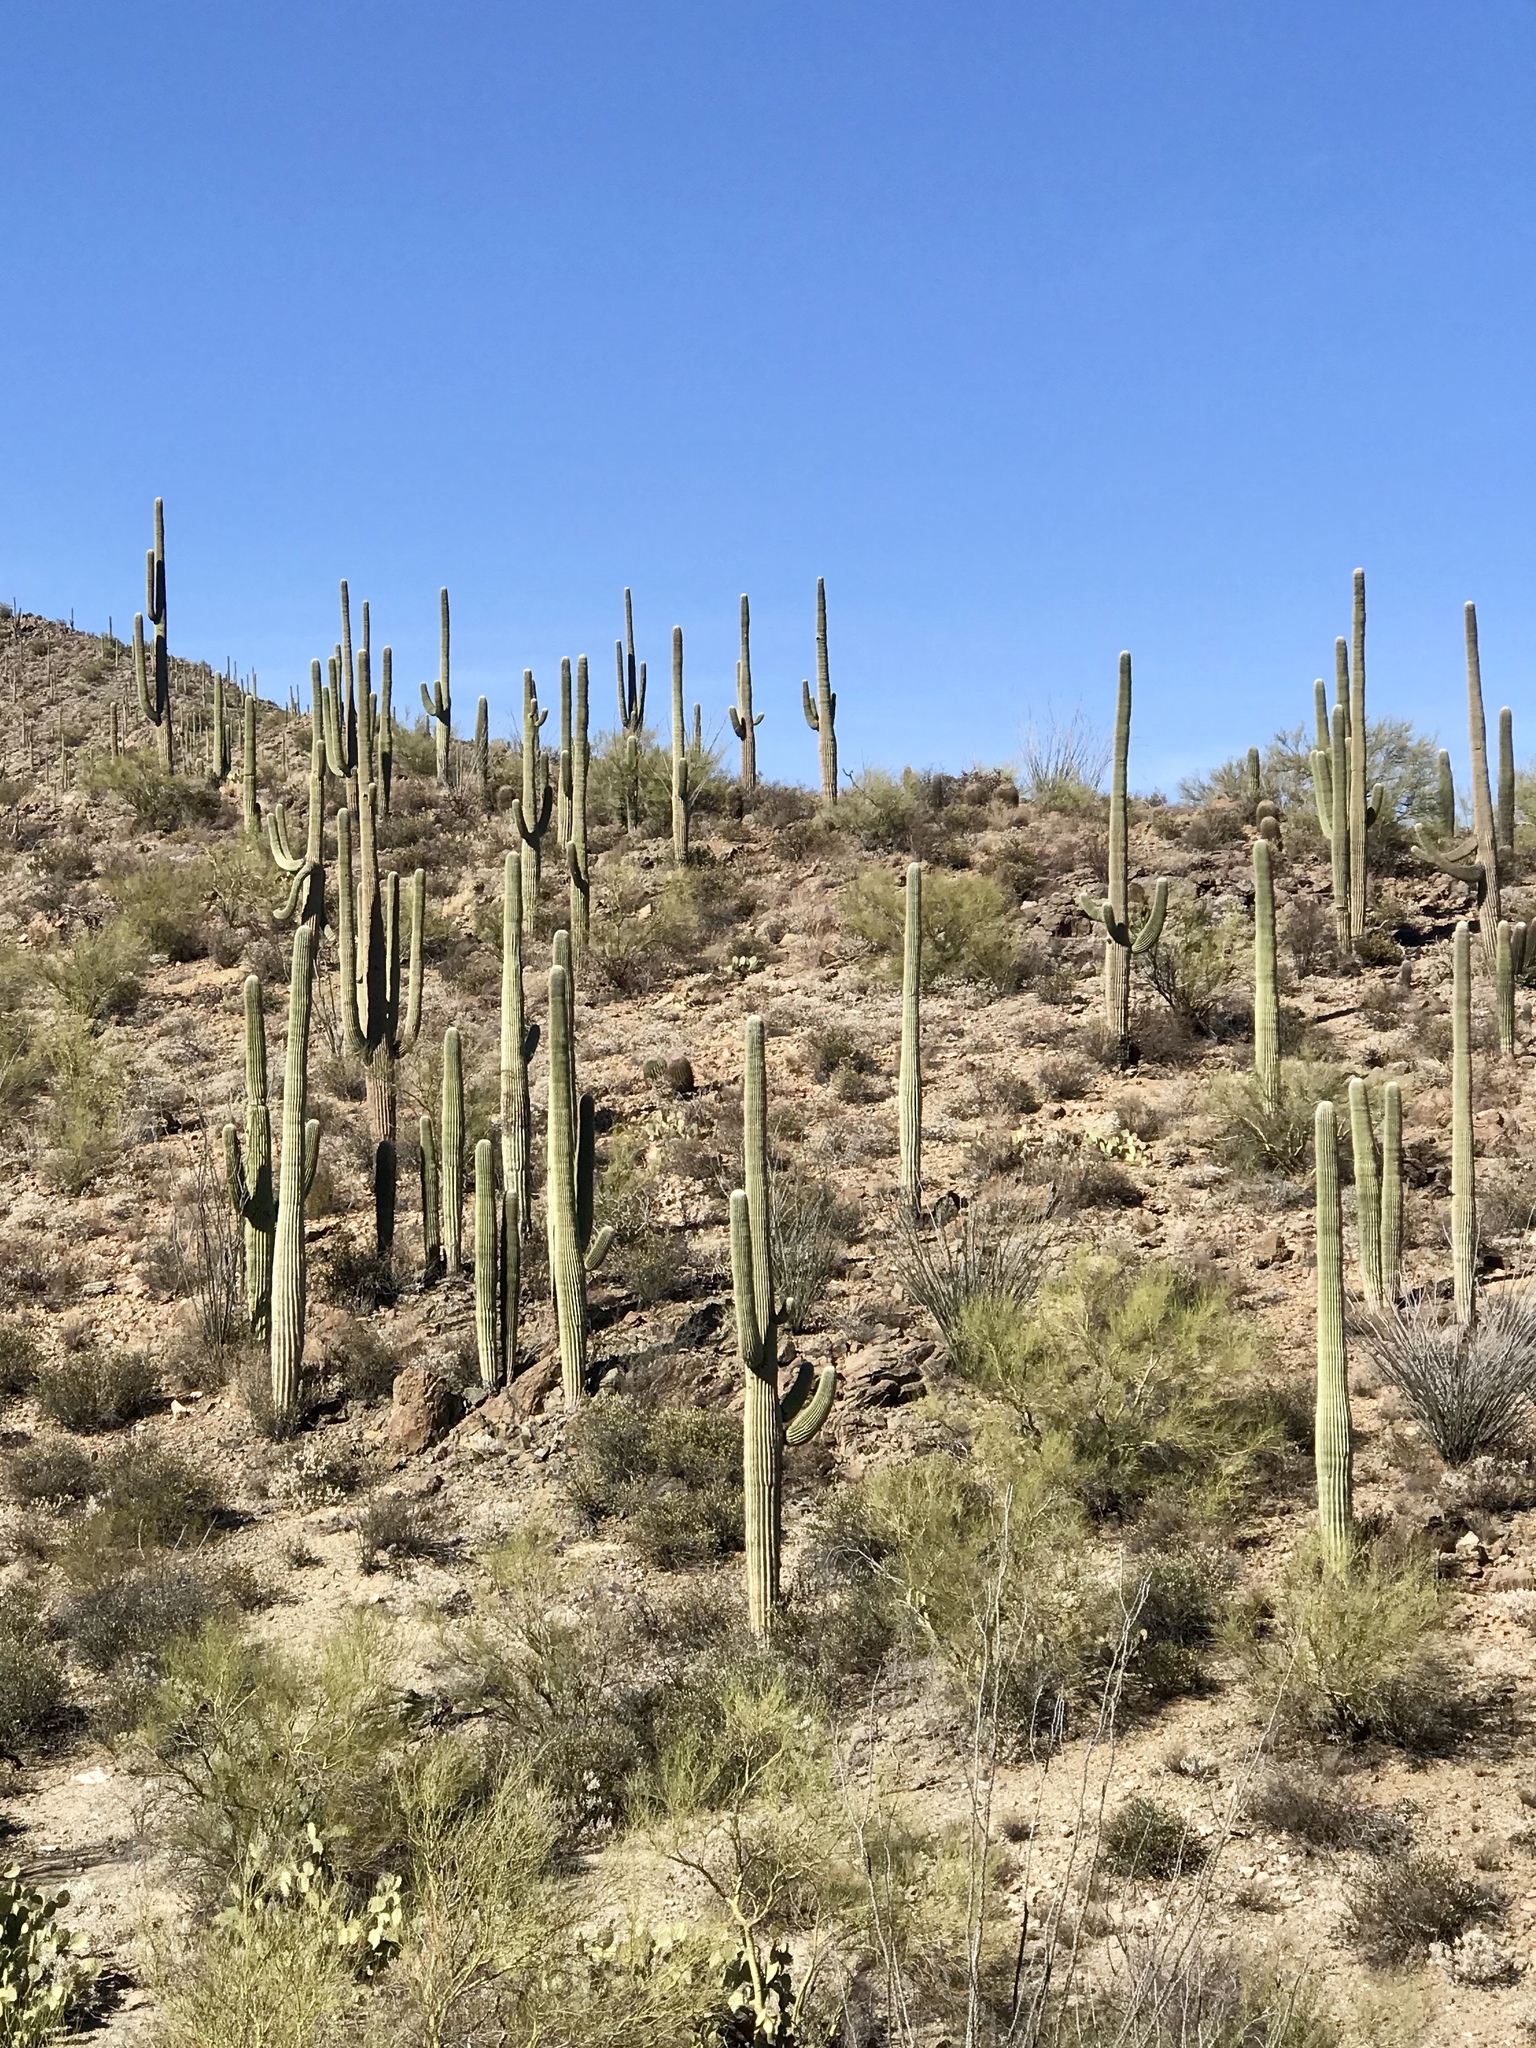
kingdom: Plantae
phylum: Tracheophyta
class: Magnoliopsida
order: Caryophyllales
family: Cactaceae
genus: Carnegiea
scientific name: Carnegiea gigantea
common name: Saguaro
